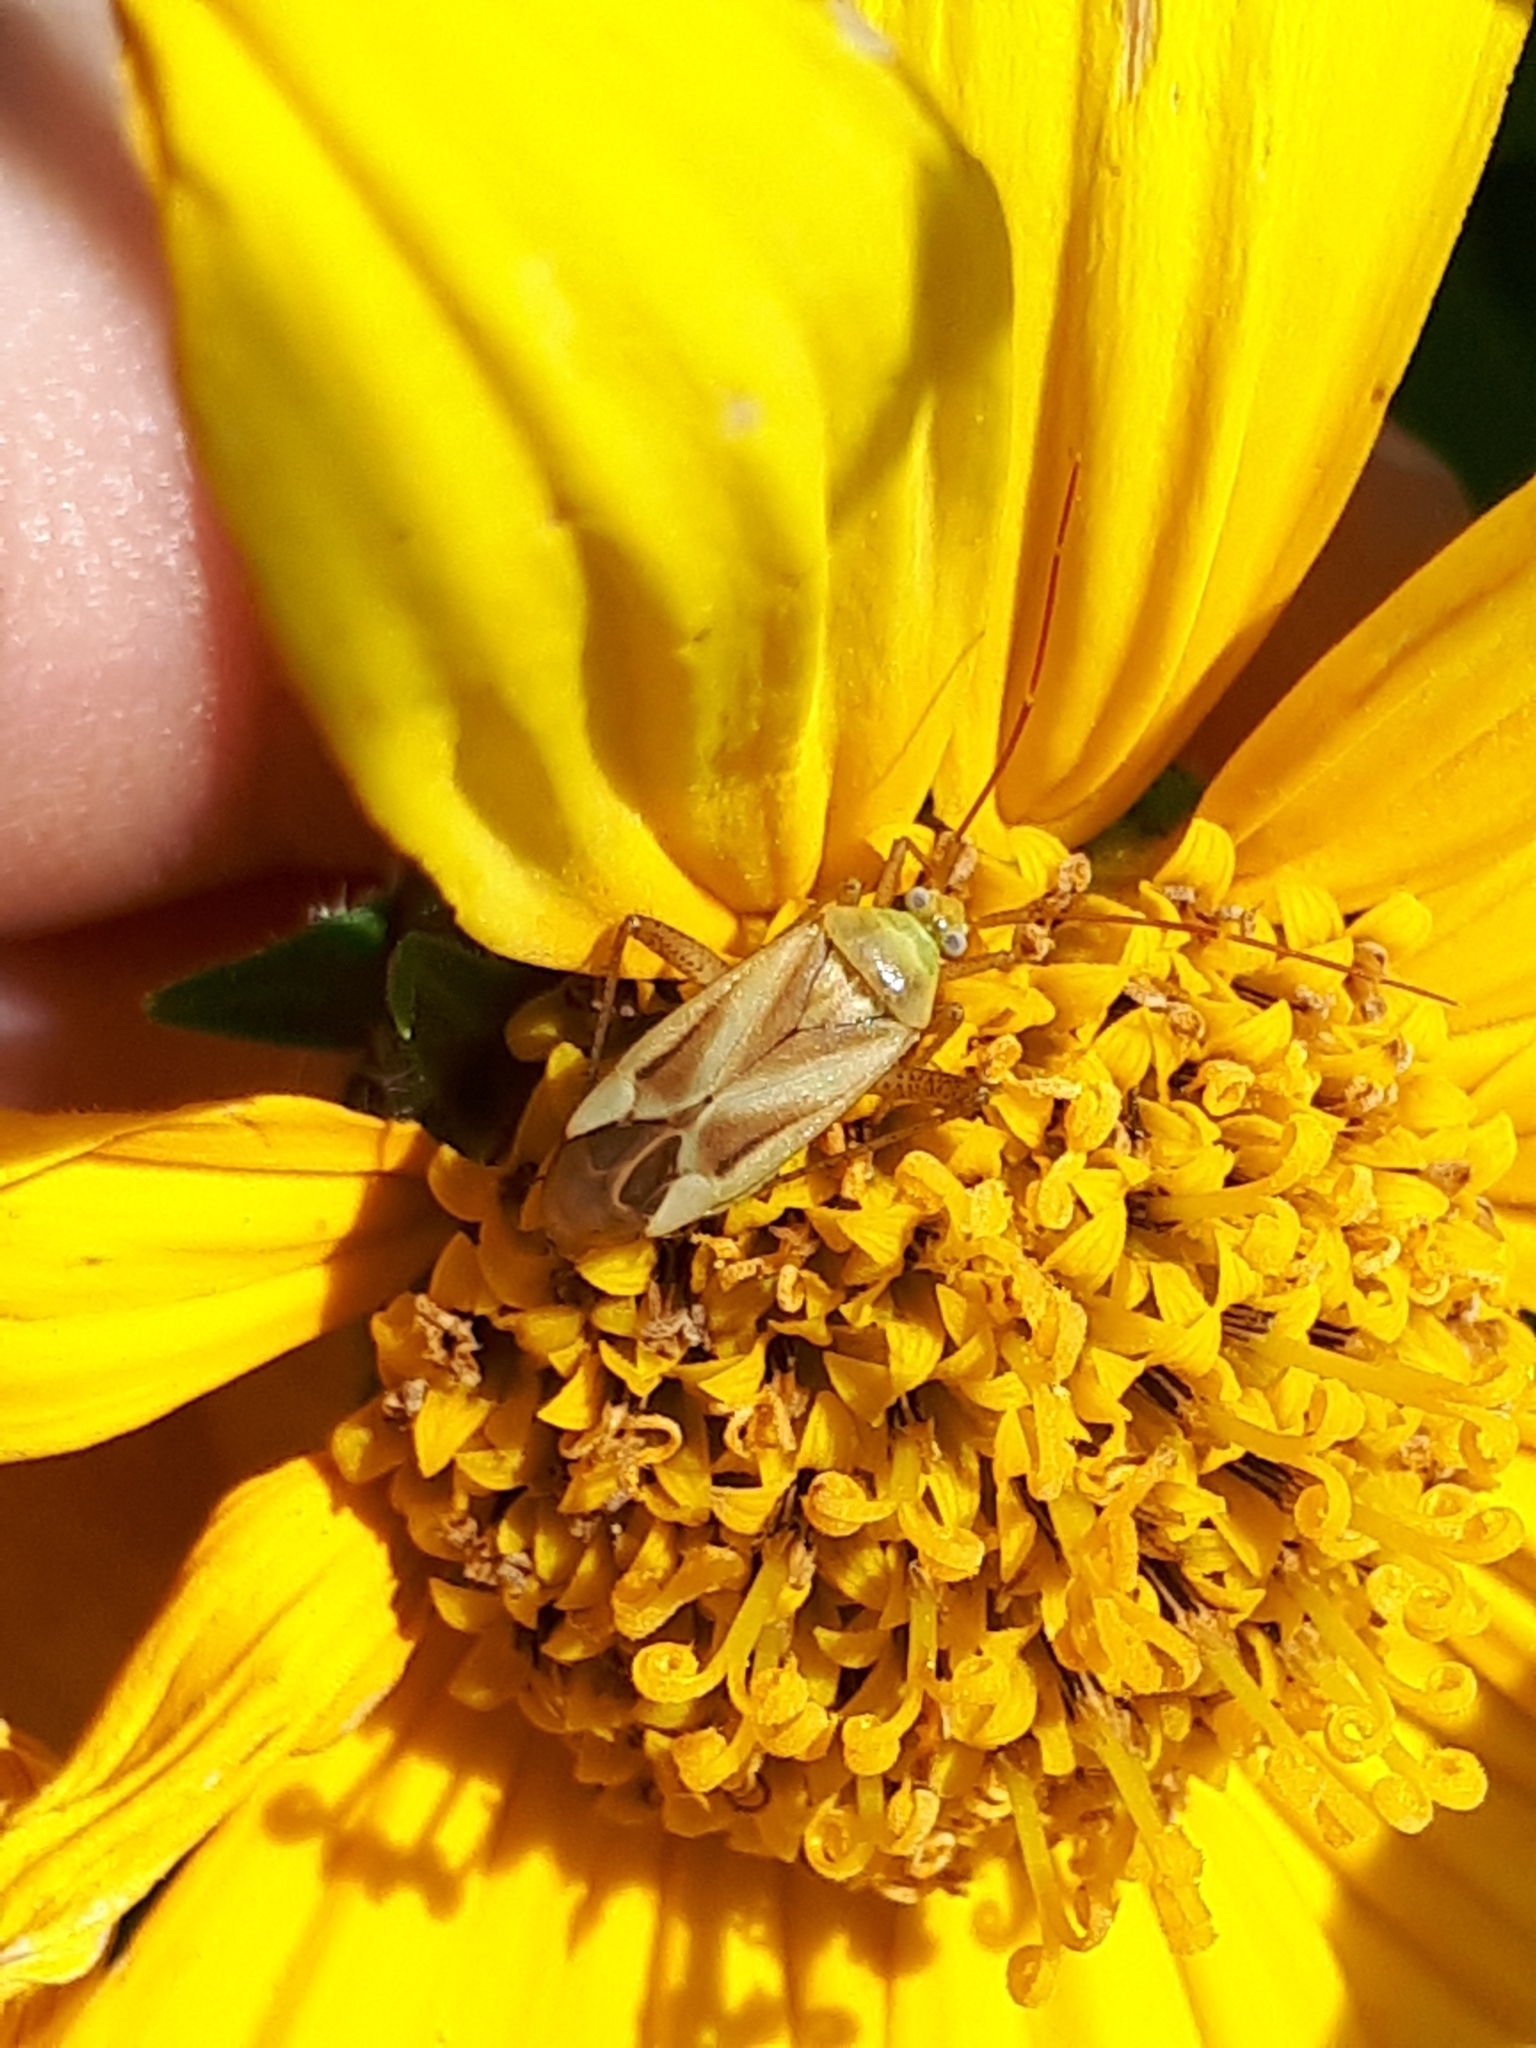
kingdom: Animalia
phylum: Arthropoda
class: Insecta
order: Hemiptera
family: Miridae
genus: Adelphocoris
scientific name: Adelphocoris lineolatus
